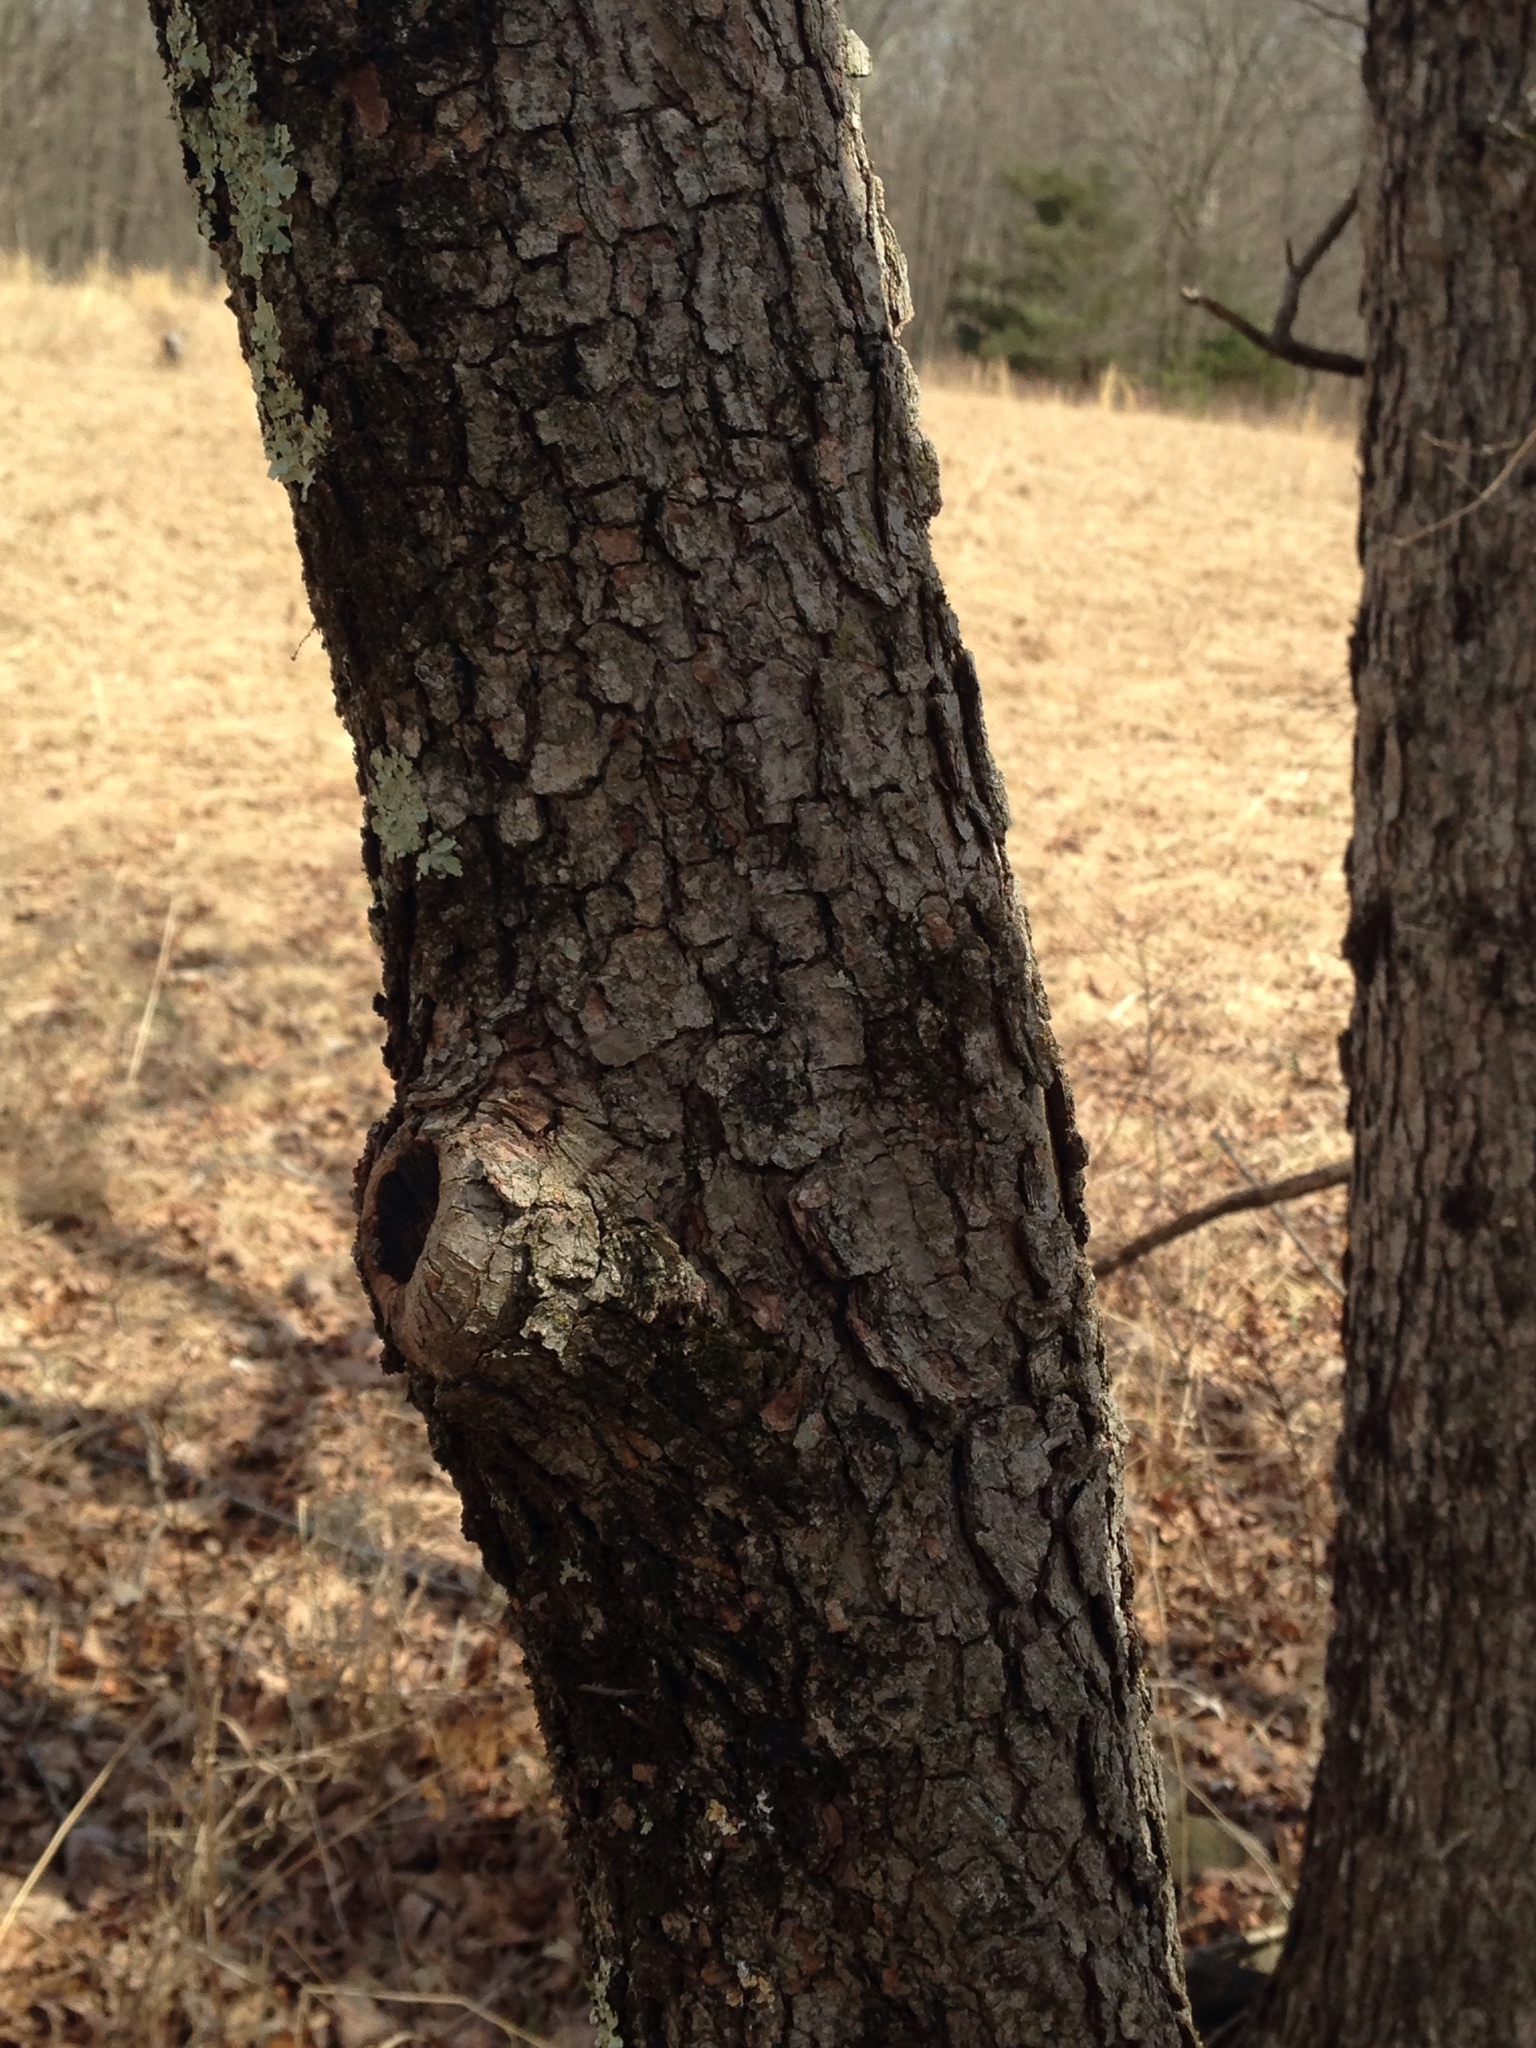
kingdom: Plantae
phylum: Tracheophyta
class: Magnoliopsida
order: Cornales
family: Cornaceae
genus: Cornus
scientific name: Cornus florida
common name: Flowering dogwood
